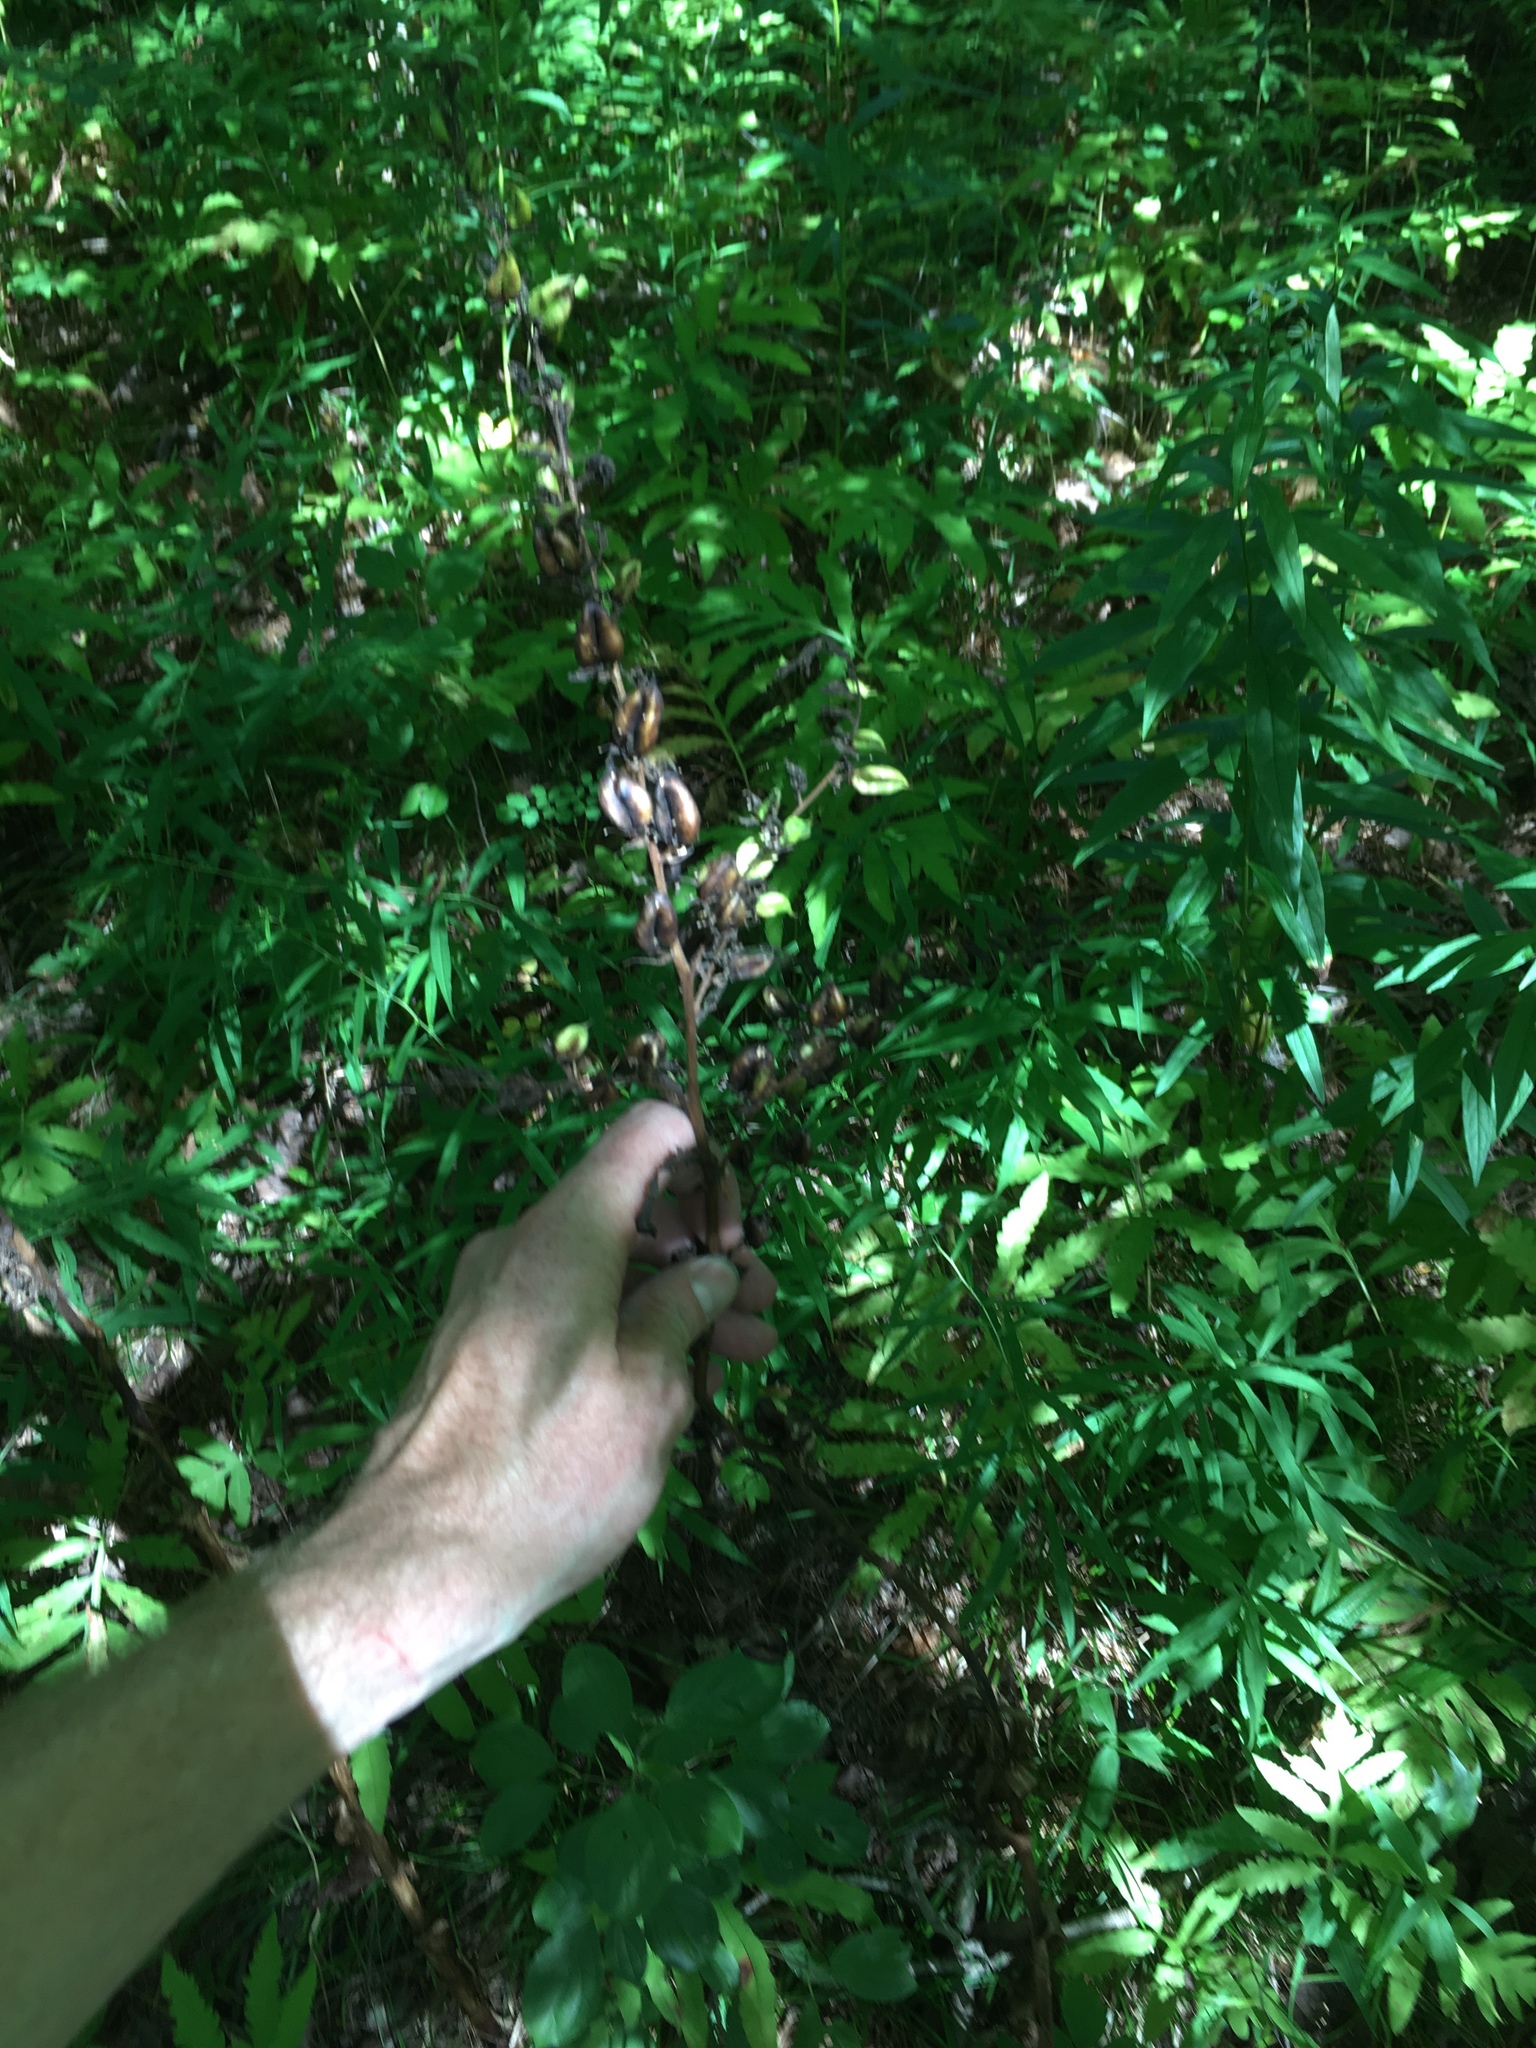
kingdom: Plantae
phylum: Tracheophyta
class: Liliopsida
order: Liliales
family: Melanthiaceae
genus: Veratrum
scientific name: Veratrum viride
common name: American false hellebore
